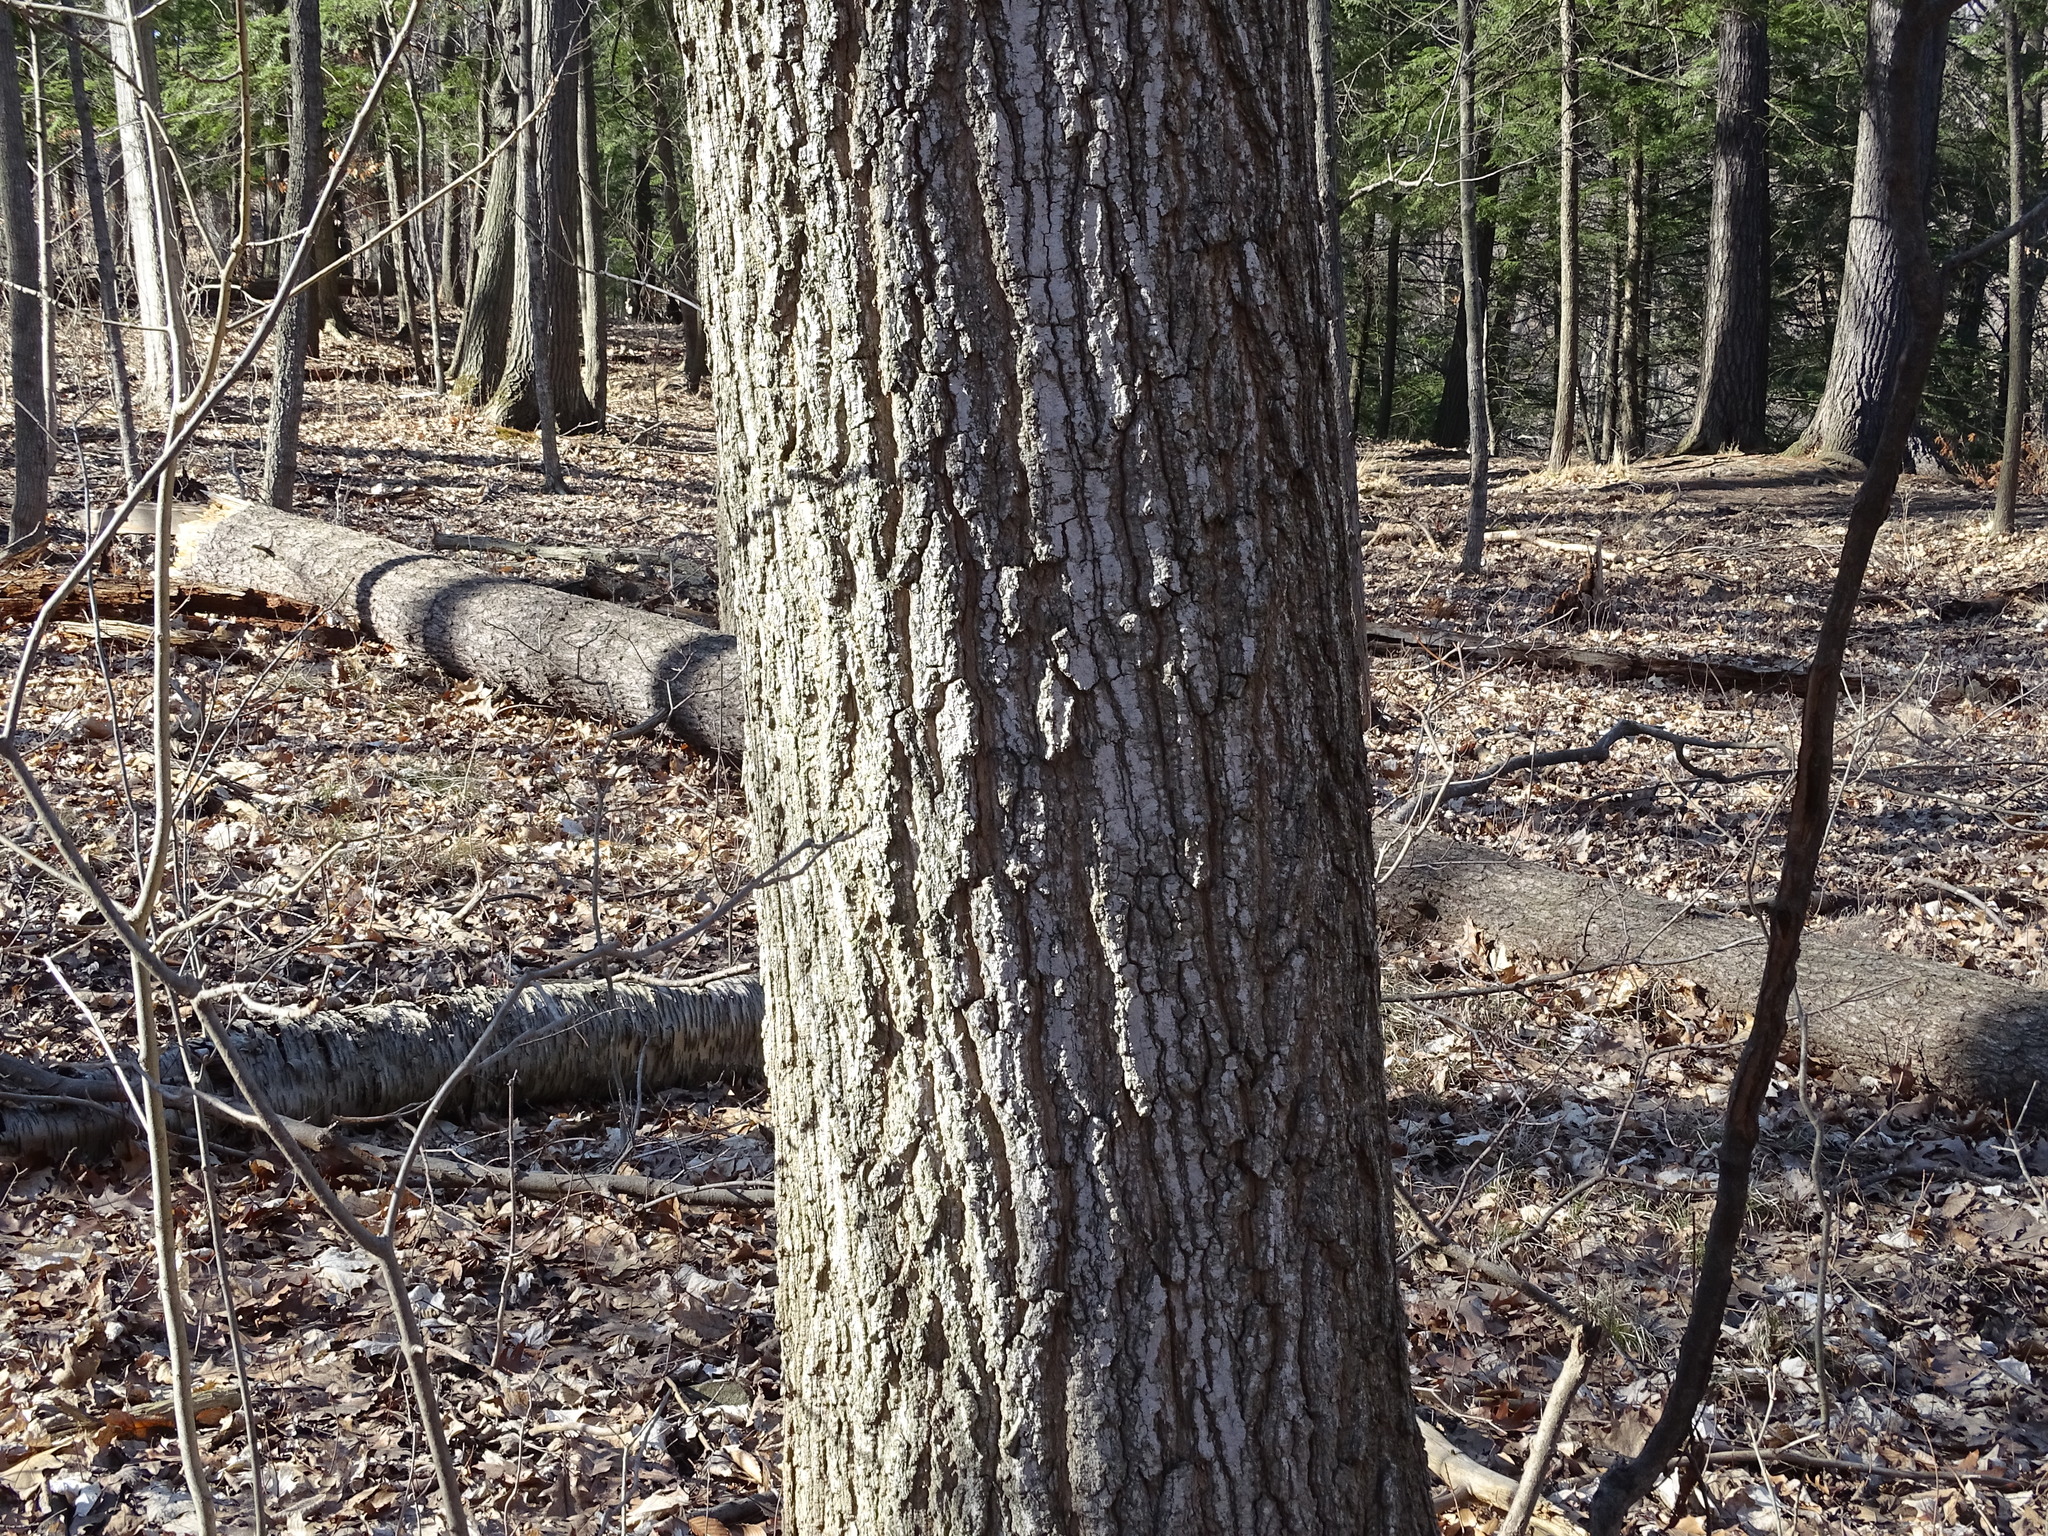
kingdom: Plantae
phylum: Tracheophyta
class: Magnoliopsida
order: Sapindales
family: Sapindaceae
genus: Acer
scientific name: Acer saccharum
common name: Sugar maple
